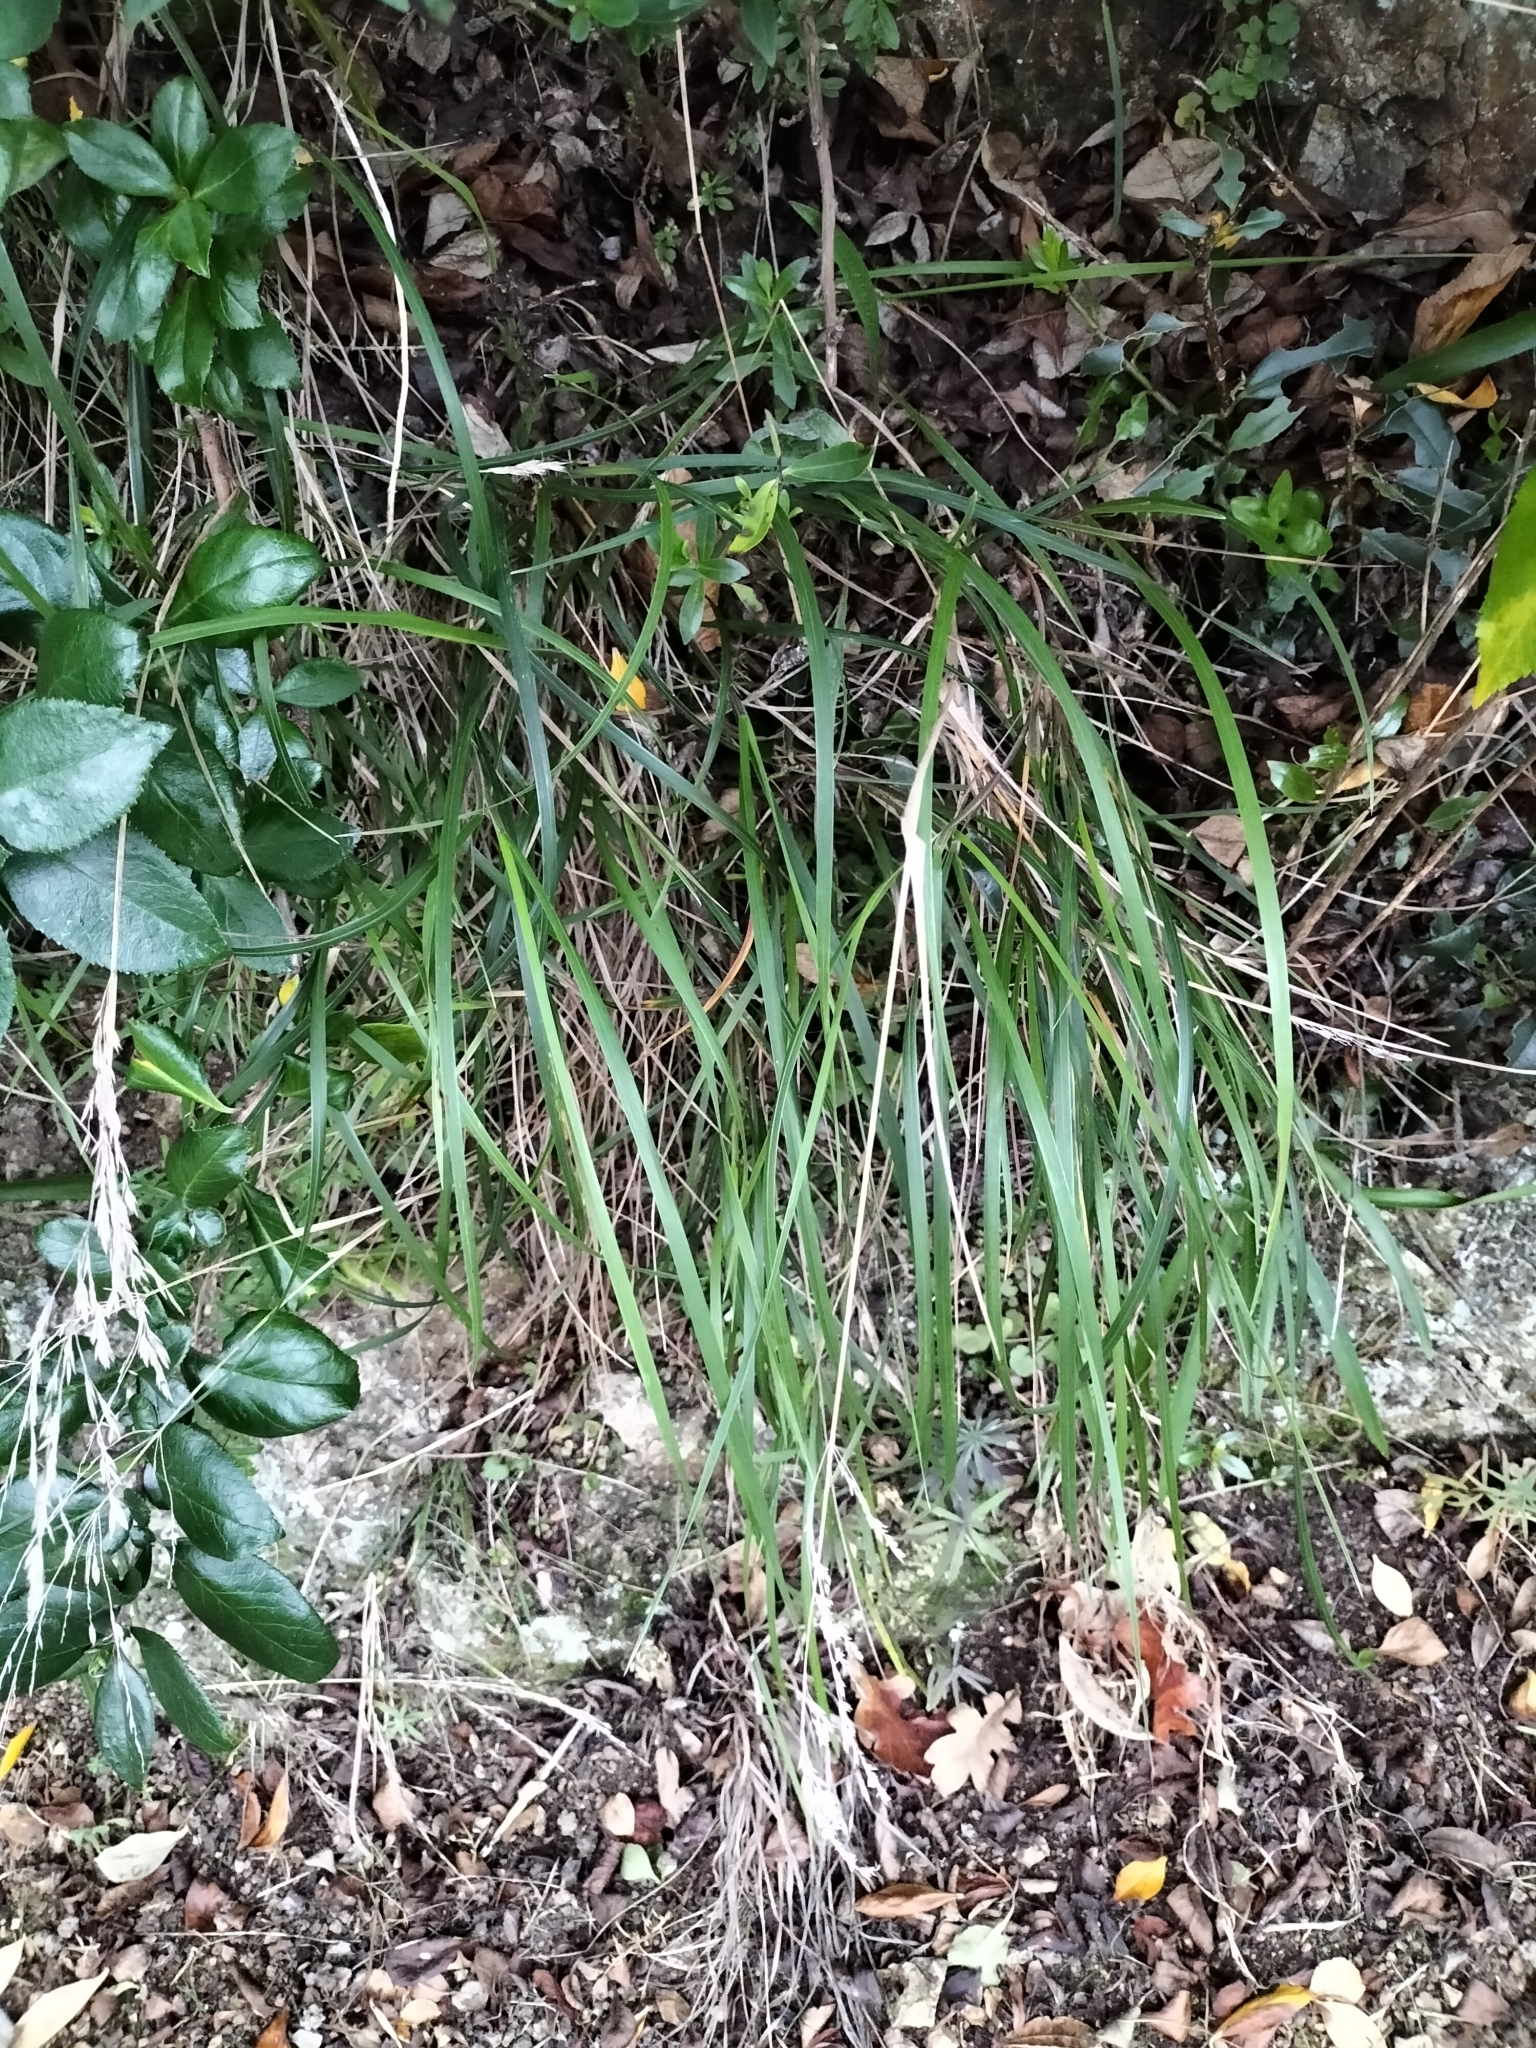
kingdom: Plantae
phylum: Tracheophyta
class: Liliopsida
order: Poales
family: Poaceae
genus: Poa
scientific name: Poa anceps
